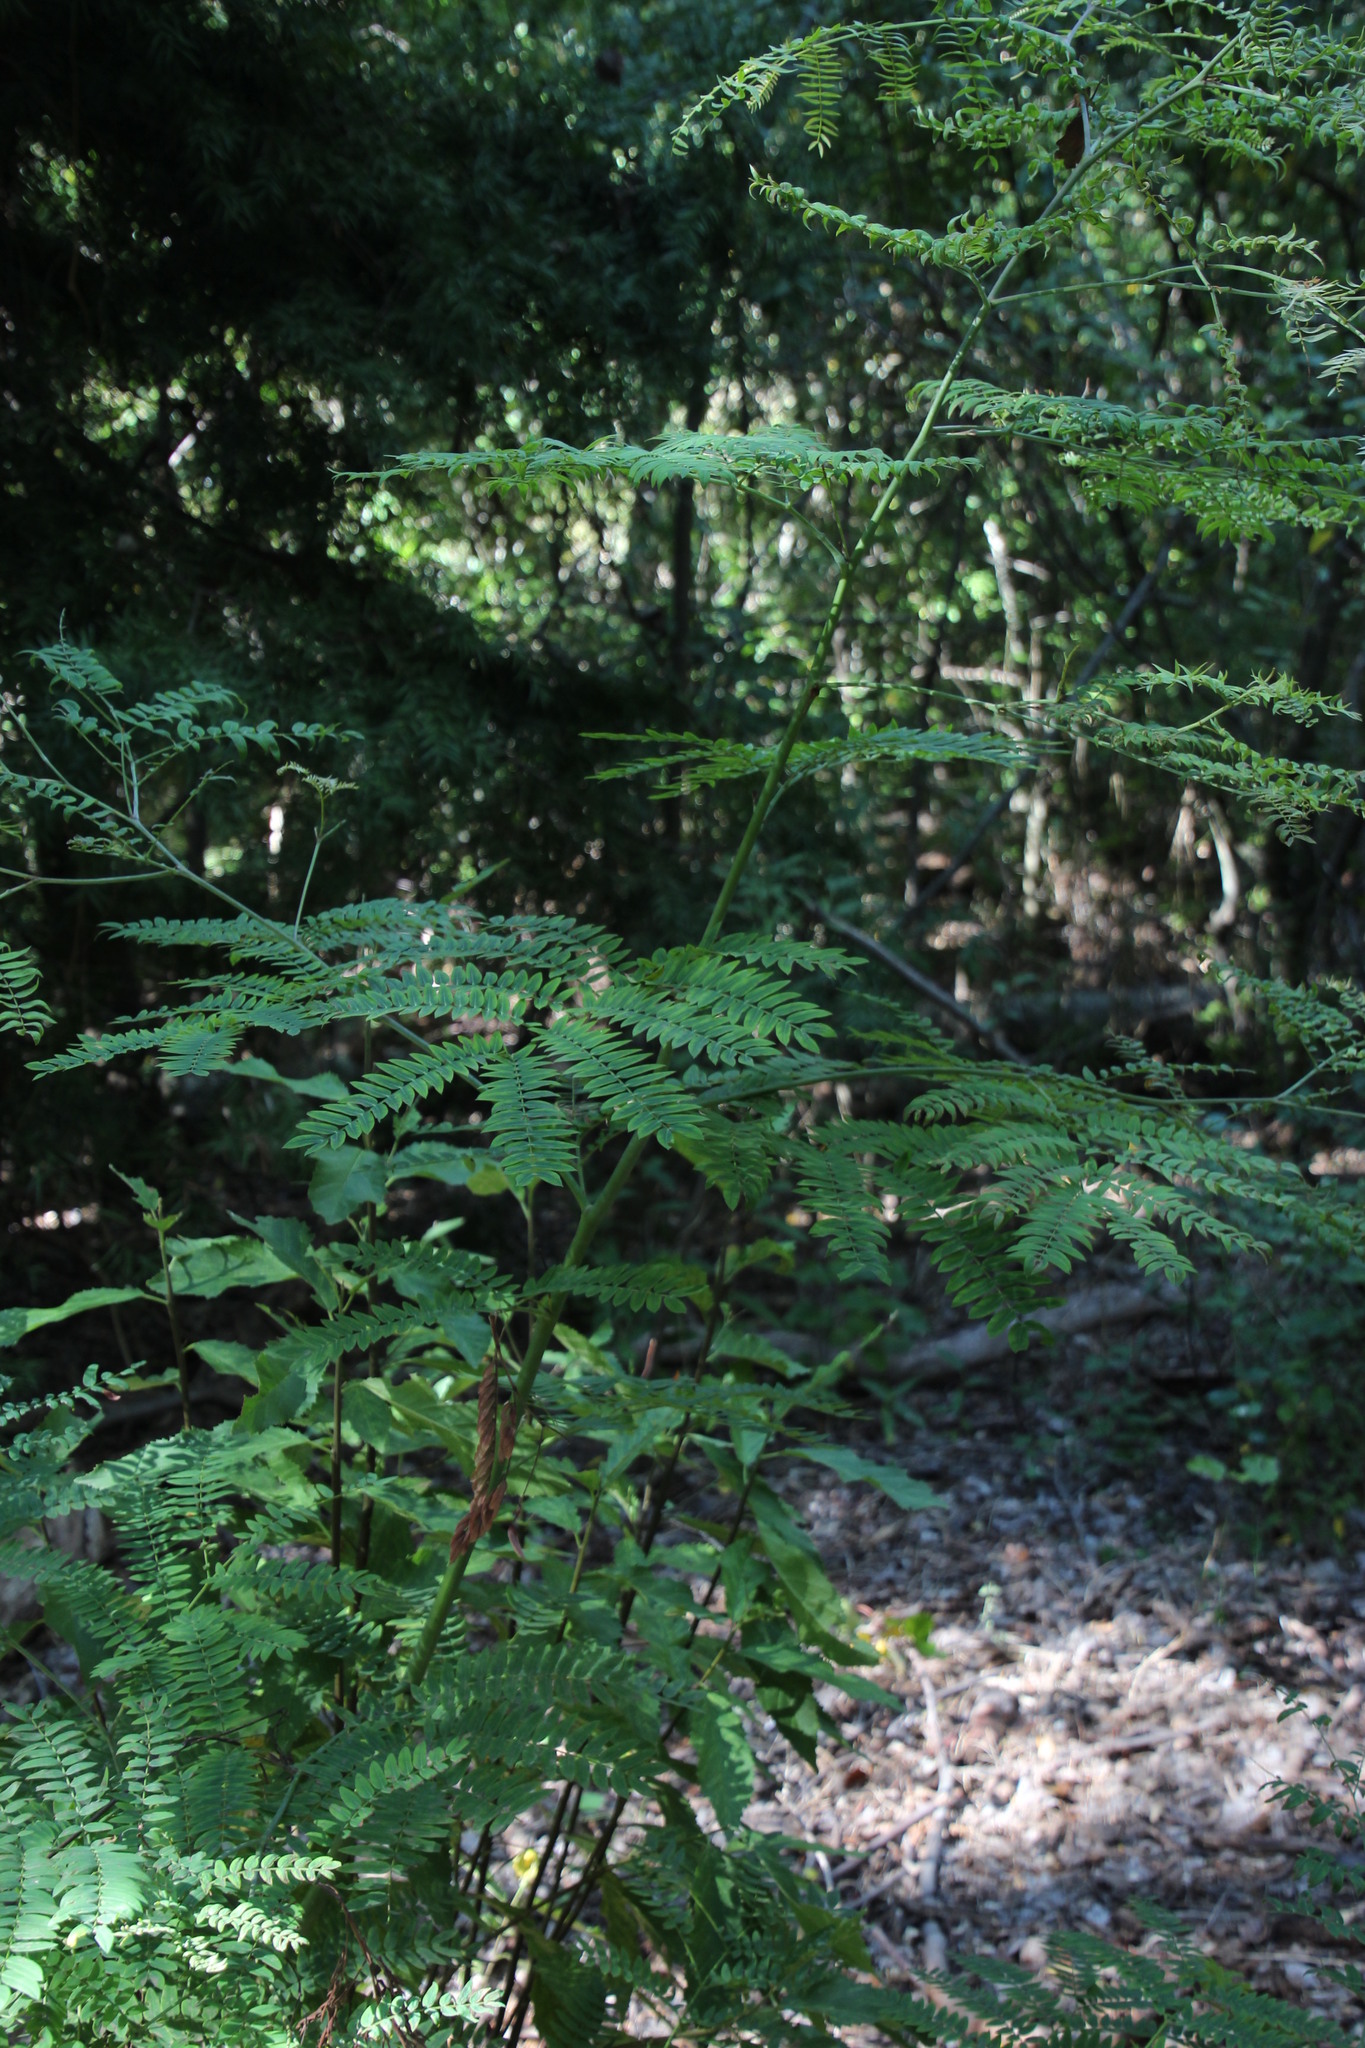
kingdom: Plantae
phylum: Tracheophyta
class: Magnoliopsida
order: Fabales
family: Fabaceae
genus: Acacia
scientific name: Acacia elata
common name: Cedar wattle
